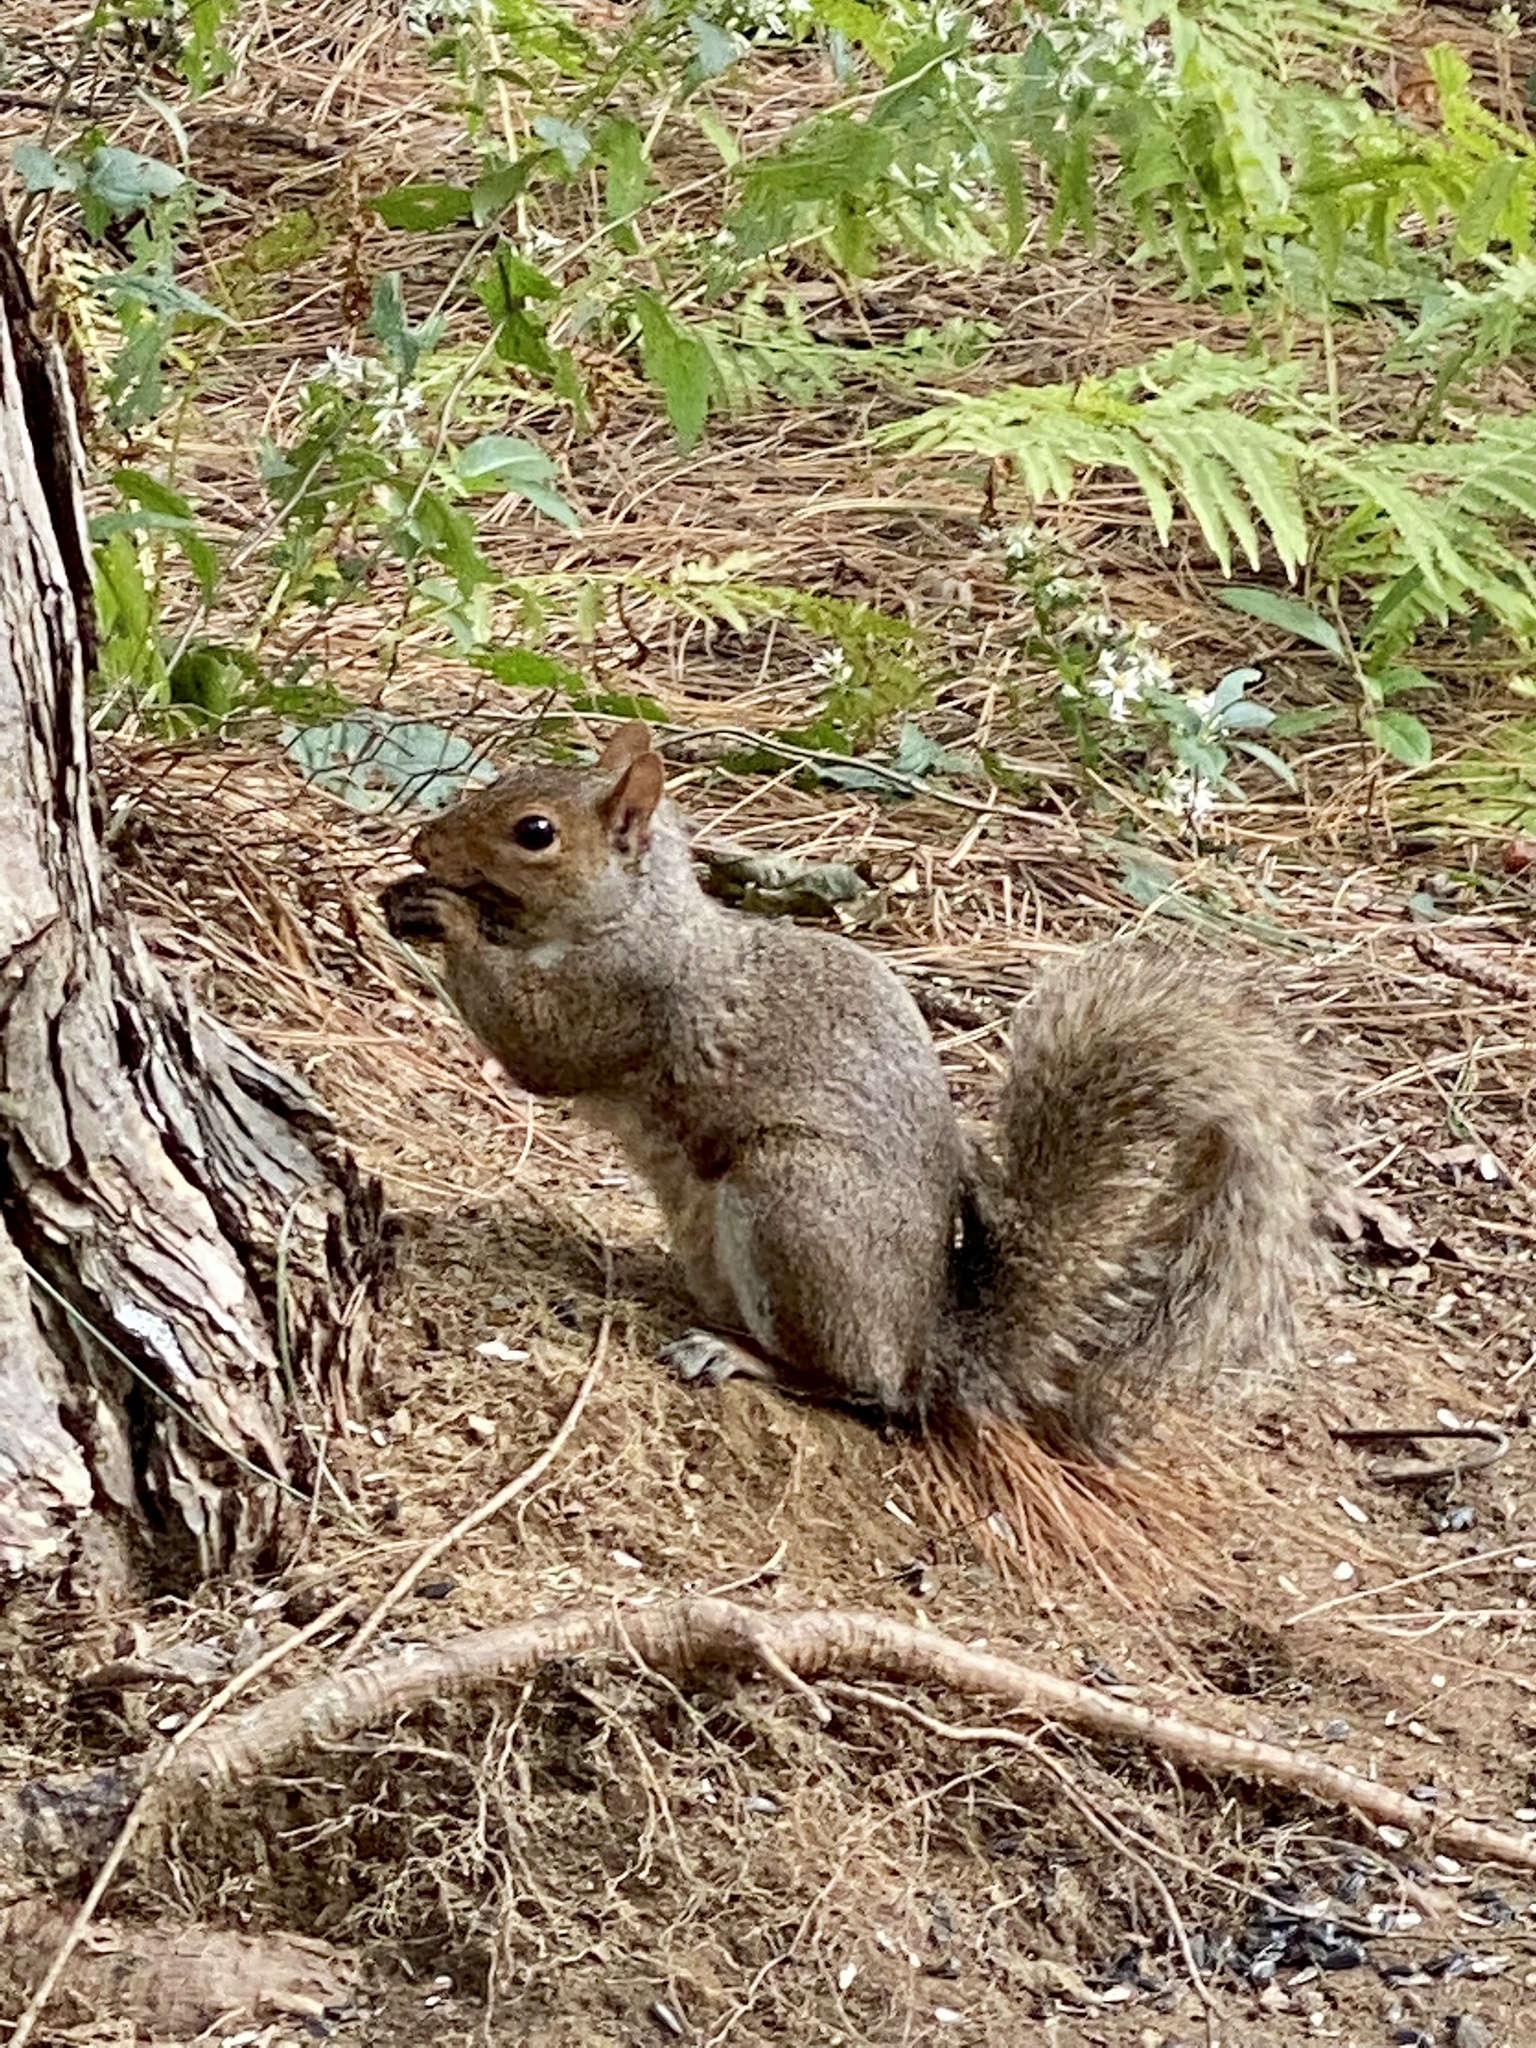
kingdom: Animalia
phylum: Chordata
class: Mammalia
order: Rodentia
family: Sciuridae
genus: Sciurus
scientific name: Sciurus carolinensis
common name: Eastern gray squirrel
